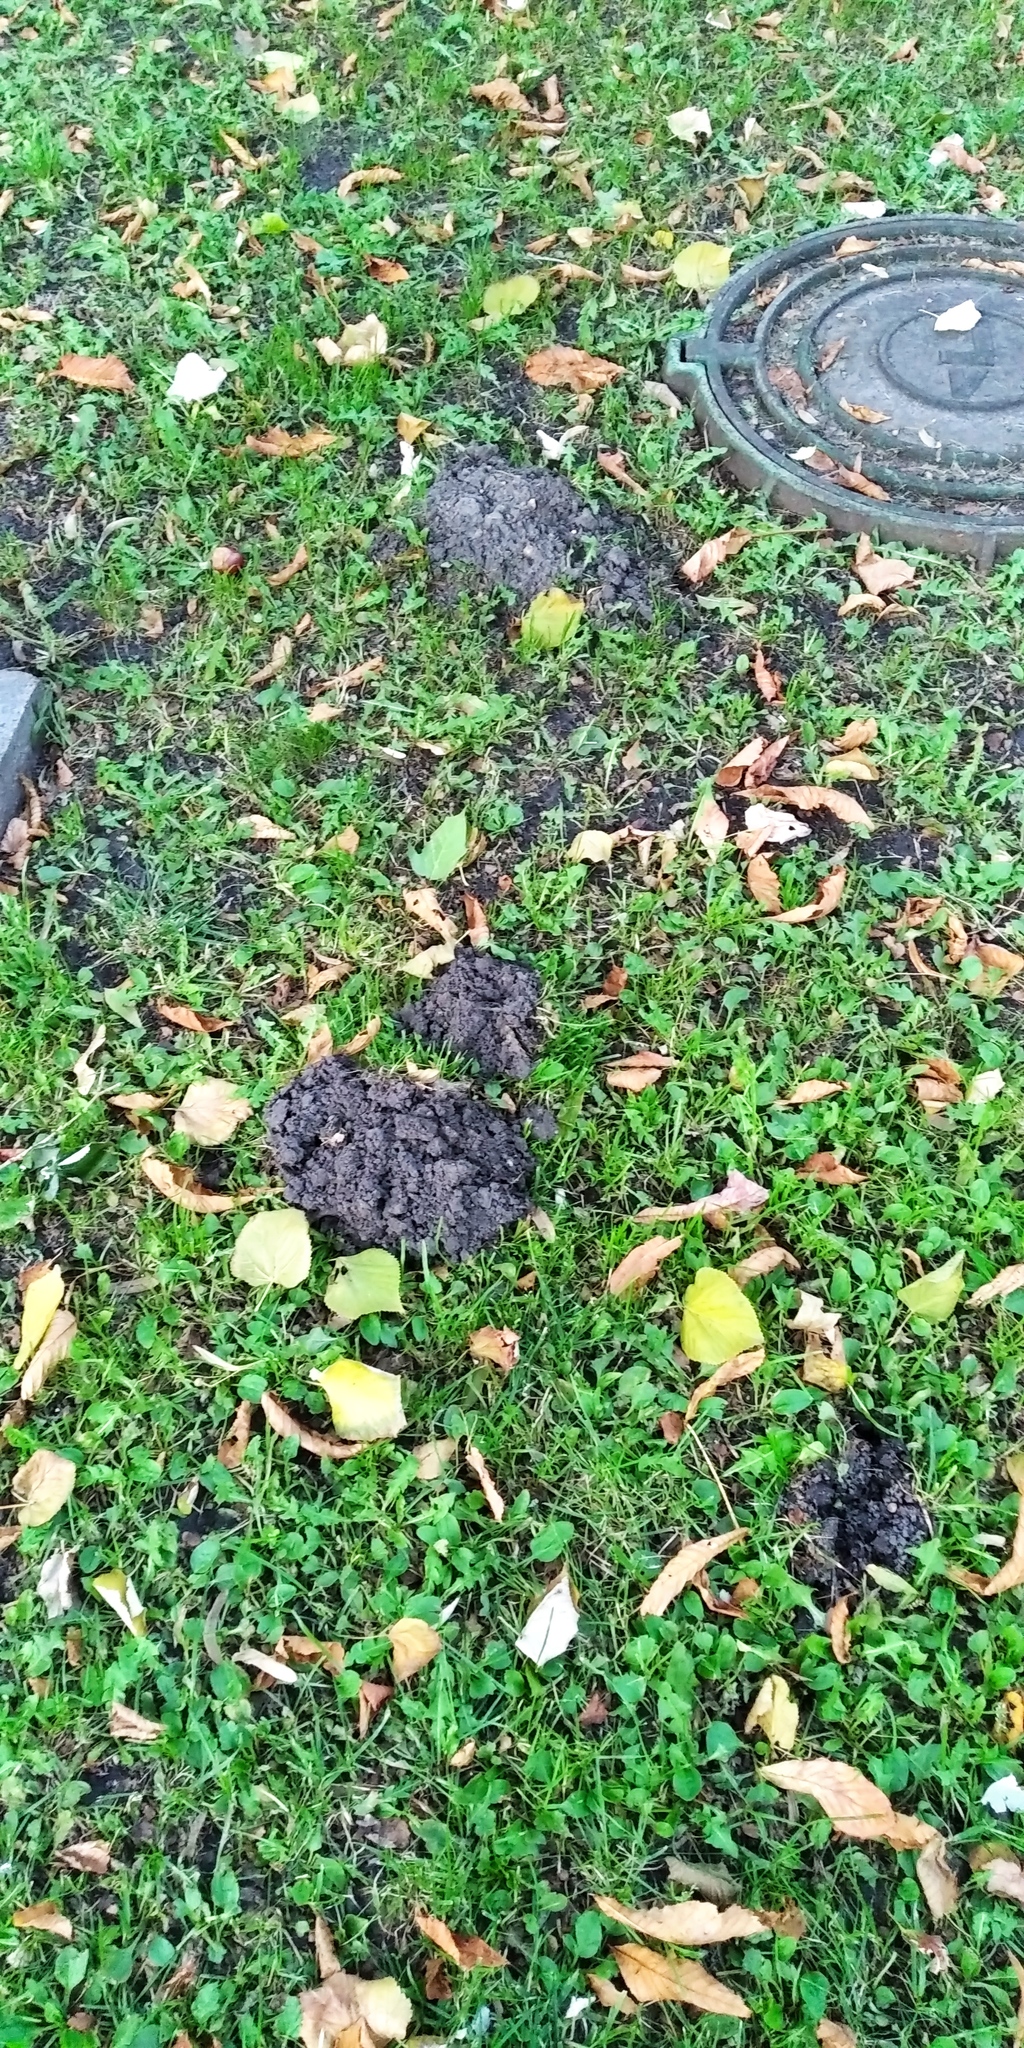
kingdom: Animalia
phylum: Chordata
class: Mammalia
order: Soricomorpha
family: Talpidae
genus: Talpa
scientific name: Talpa europaea
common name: European mole
